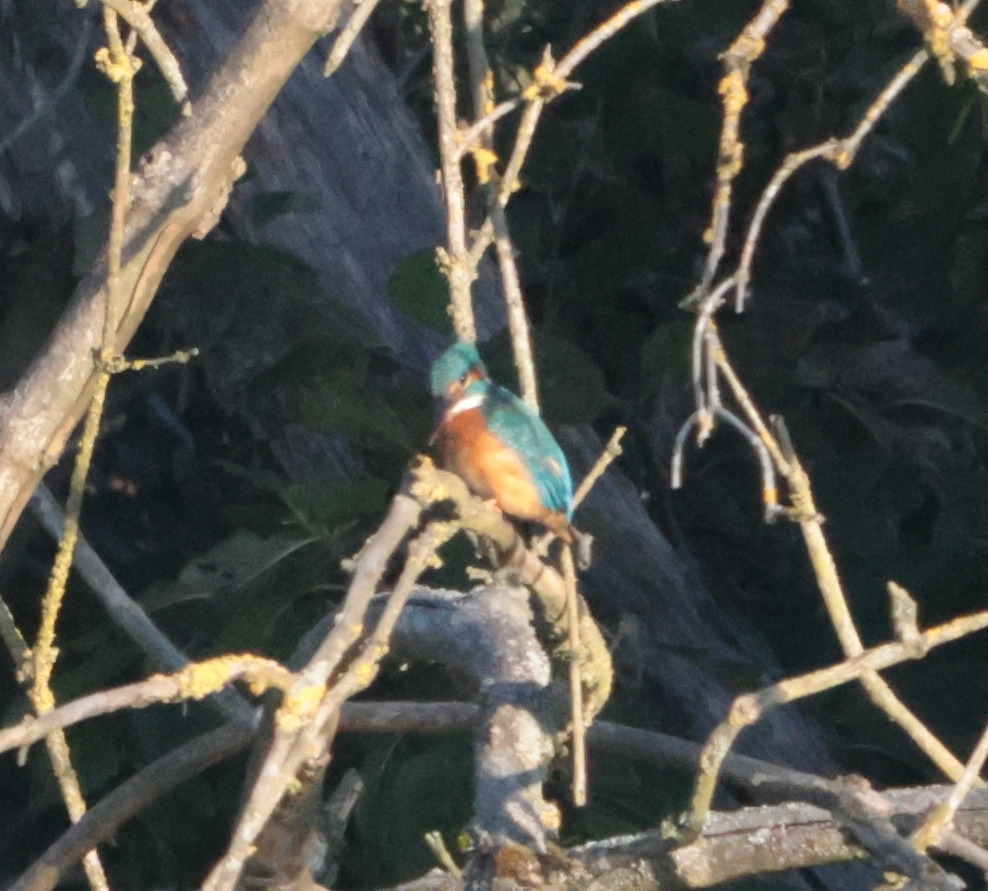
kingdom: Animalia
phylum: Chordata
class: Aves
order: Coraciiformes
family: Alcedinidae
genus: Alcedo
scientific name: Alcedo atthis
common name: Common kingfisher
